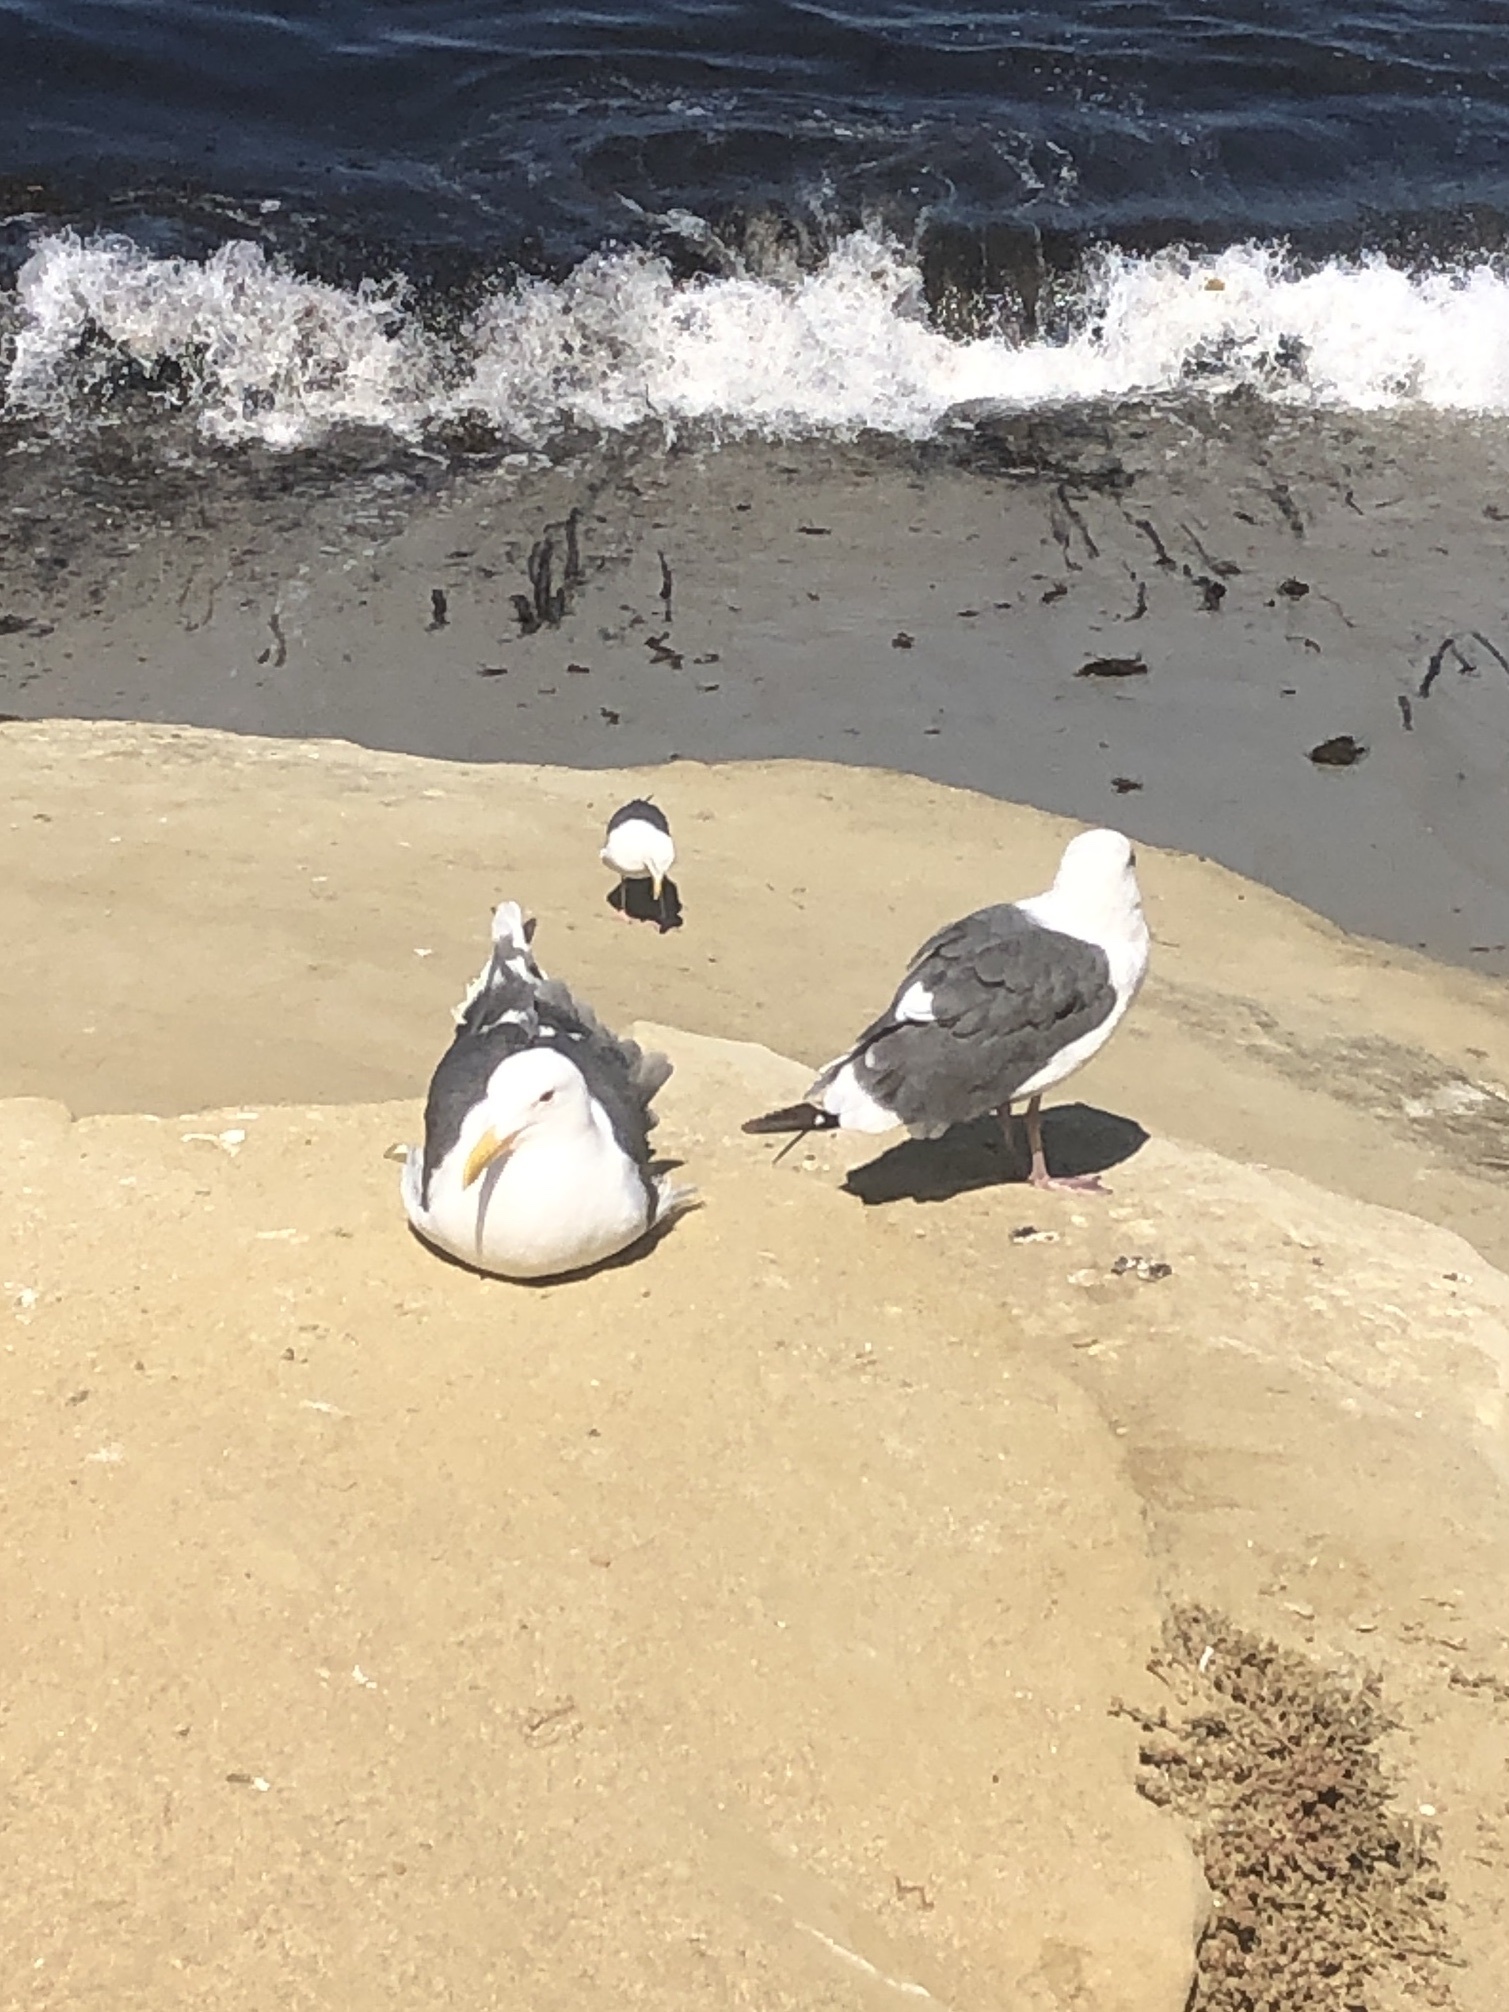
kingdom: Animalia
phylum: Chordata
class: Aves
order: Charadriiformes
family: Laridae
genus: Larus
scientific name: Larus occidentalis
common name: Western gull
